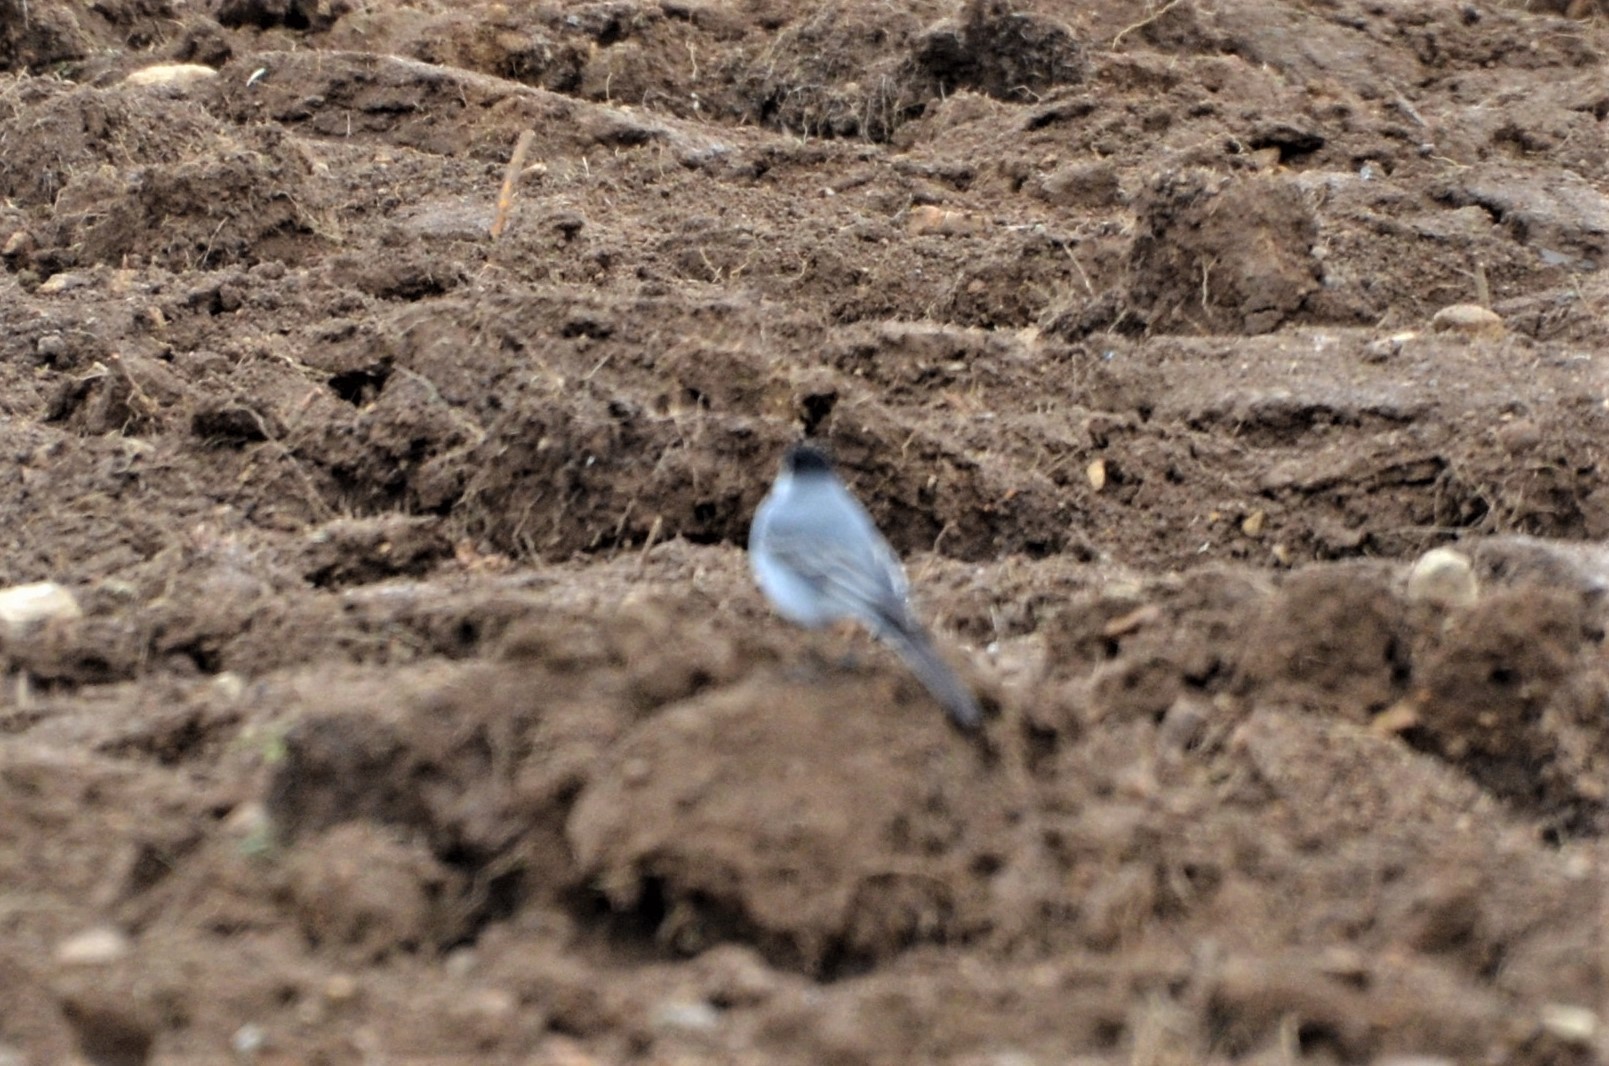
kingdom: Animalia
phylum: Chordata
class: Aves
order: Passeriformes
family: Motacillidae
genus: Motacilla
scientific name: Motacilla alba
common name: White wagtail
